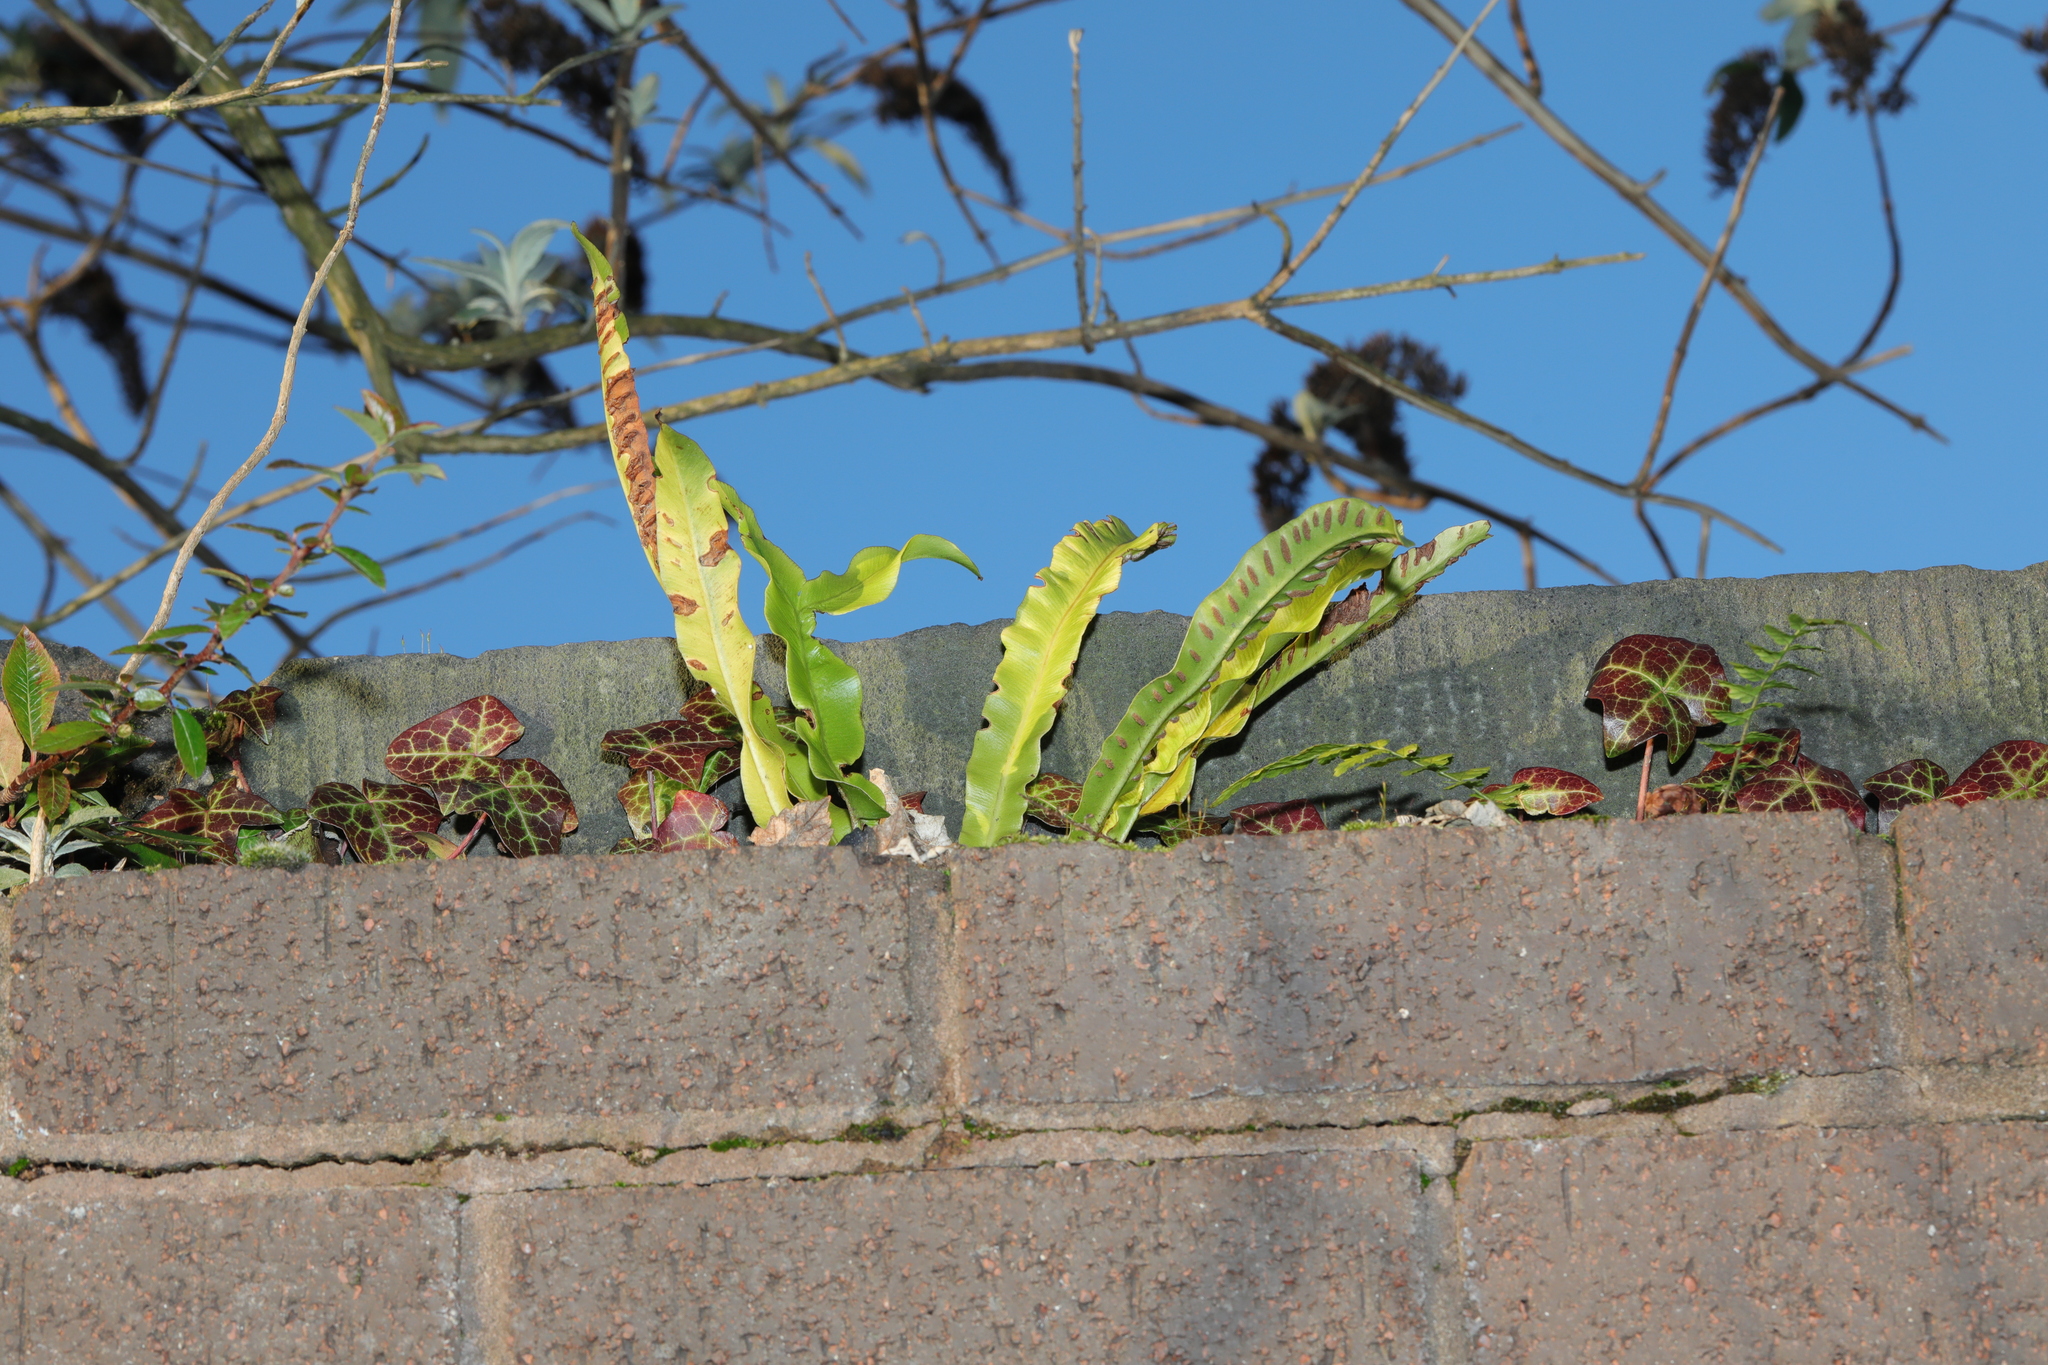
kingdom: Plantae
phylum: Tracheophyta
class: Polypodiopsida
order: Polypodiales
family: Aspleniaceae
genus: Asplenium
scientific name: Asplenium scolopendrium
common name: Hart's-tongue fern
